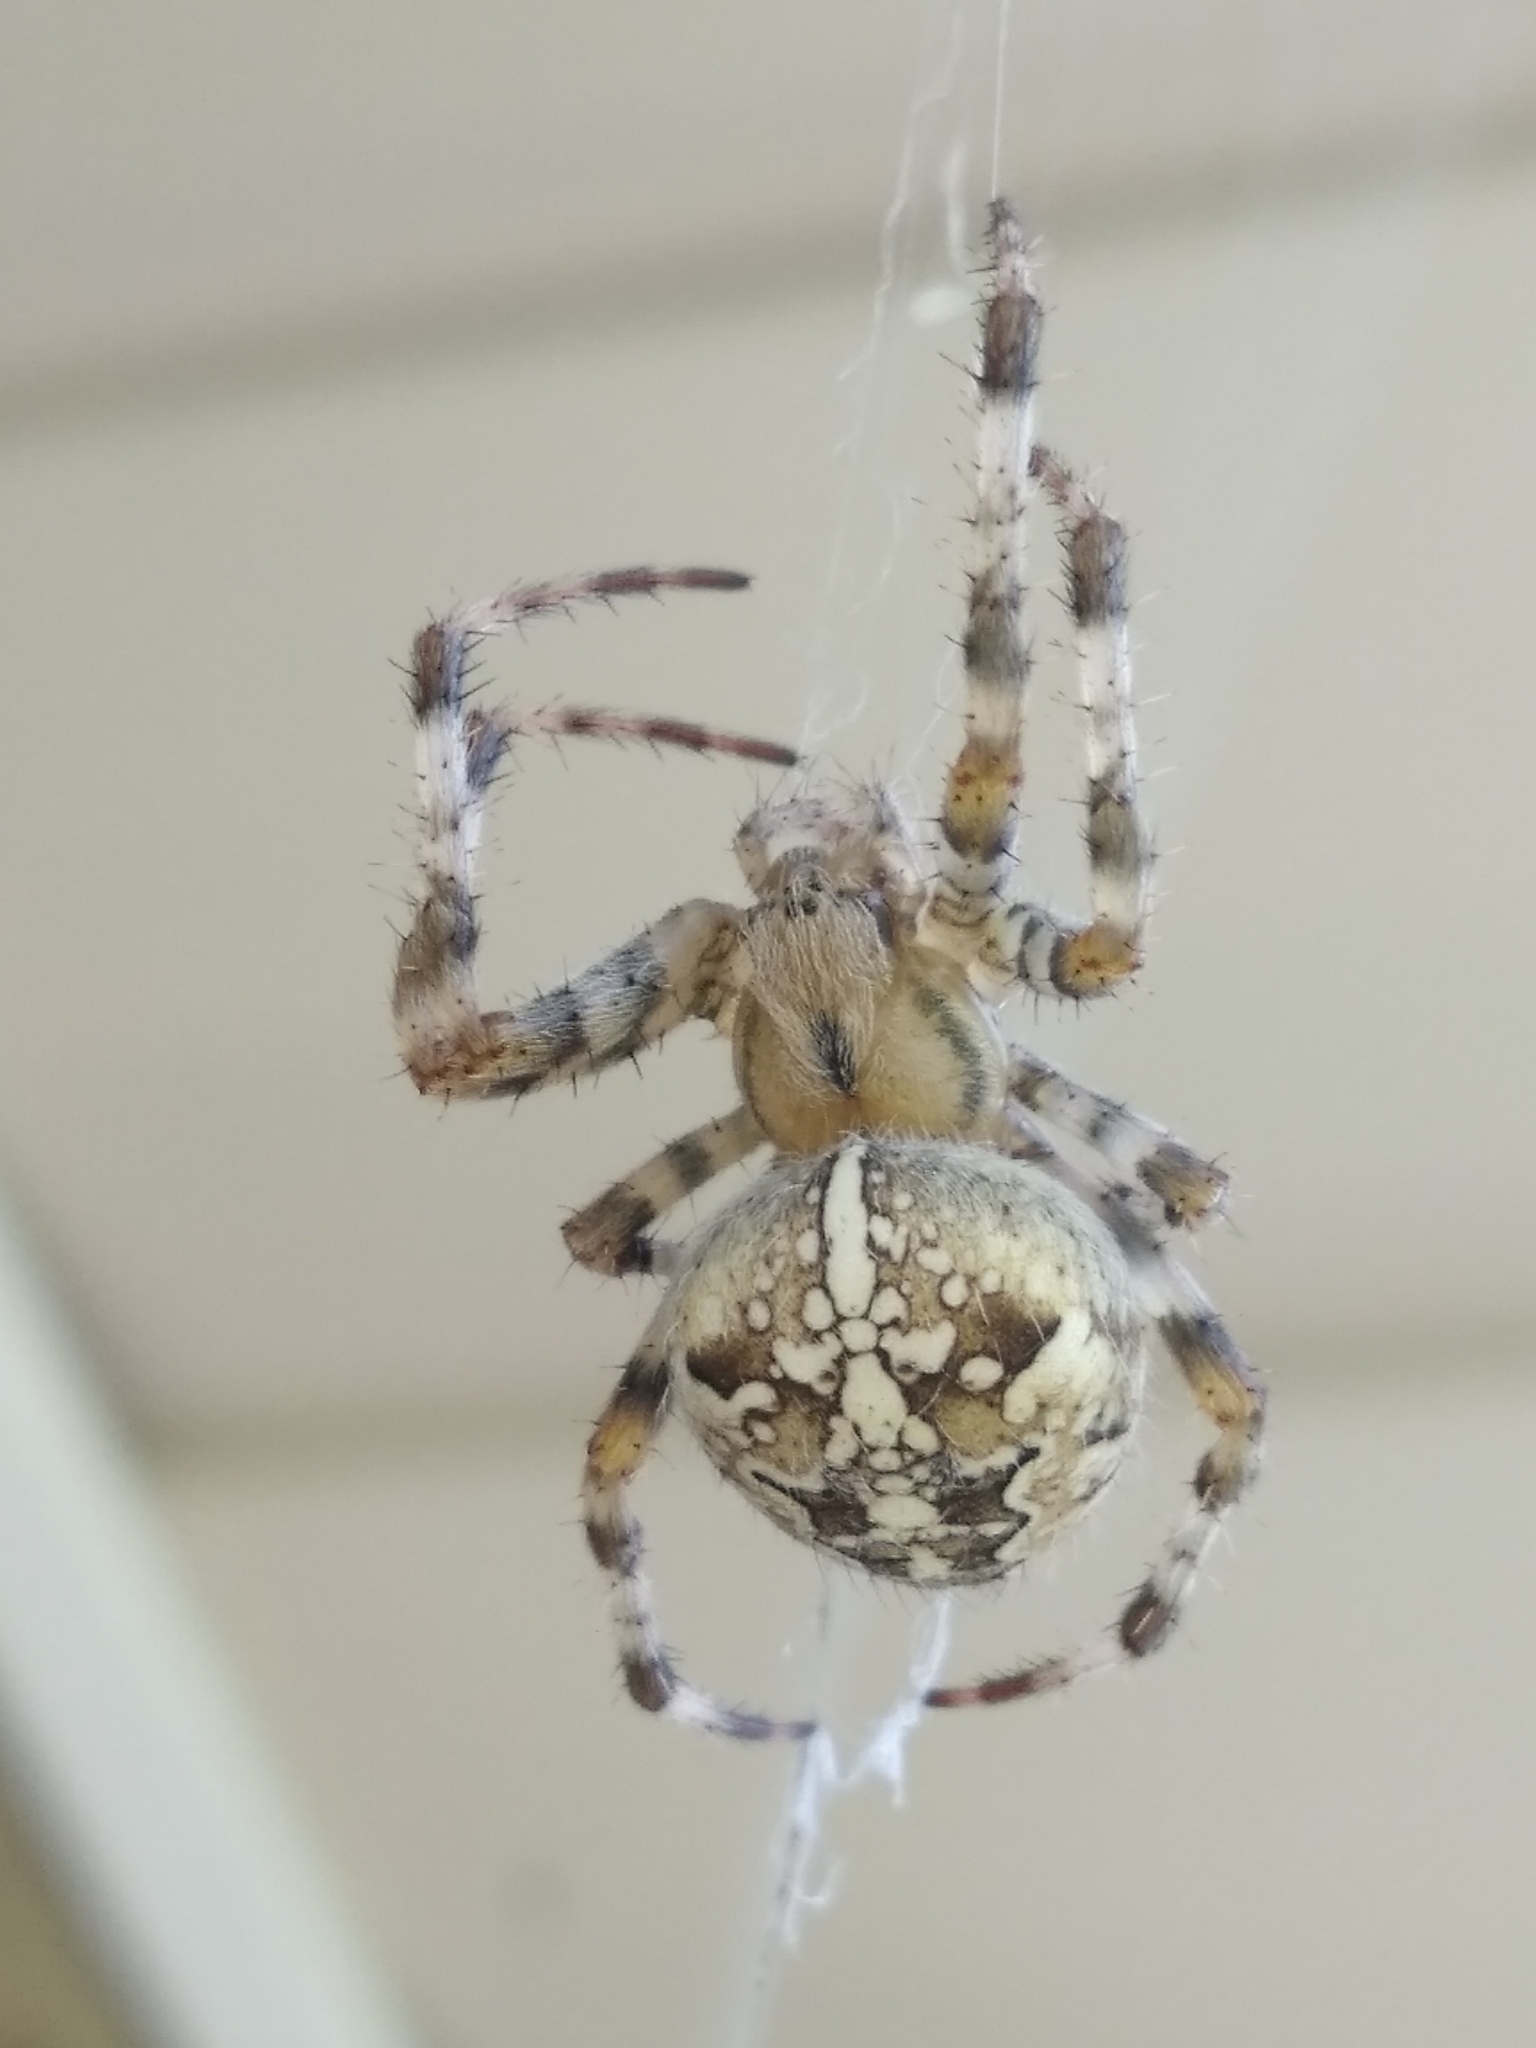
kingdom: Animalia
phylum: Arthropoda
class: Arachnida
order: Araneae
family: Araneidae
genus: Araneus
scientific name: Araneus diadematus
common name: Cross orbweaver
